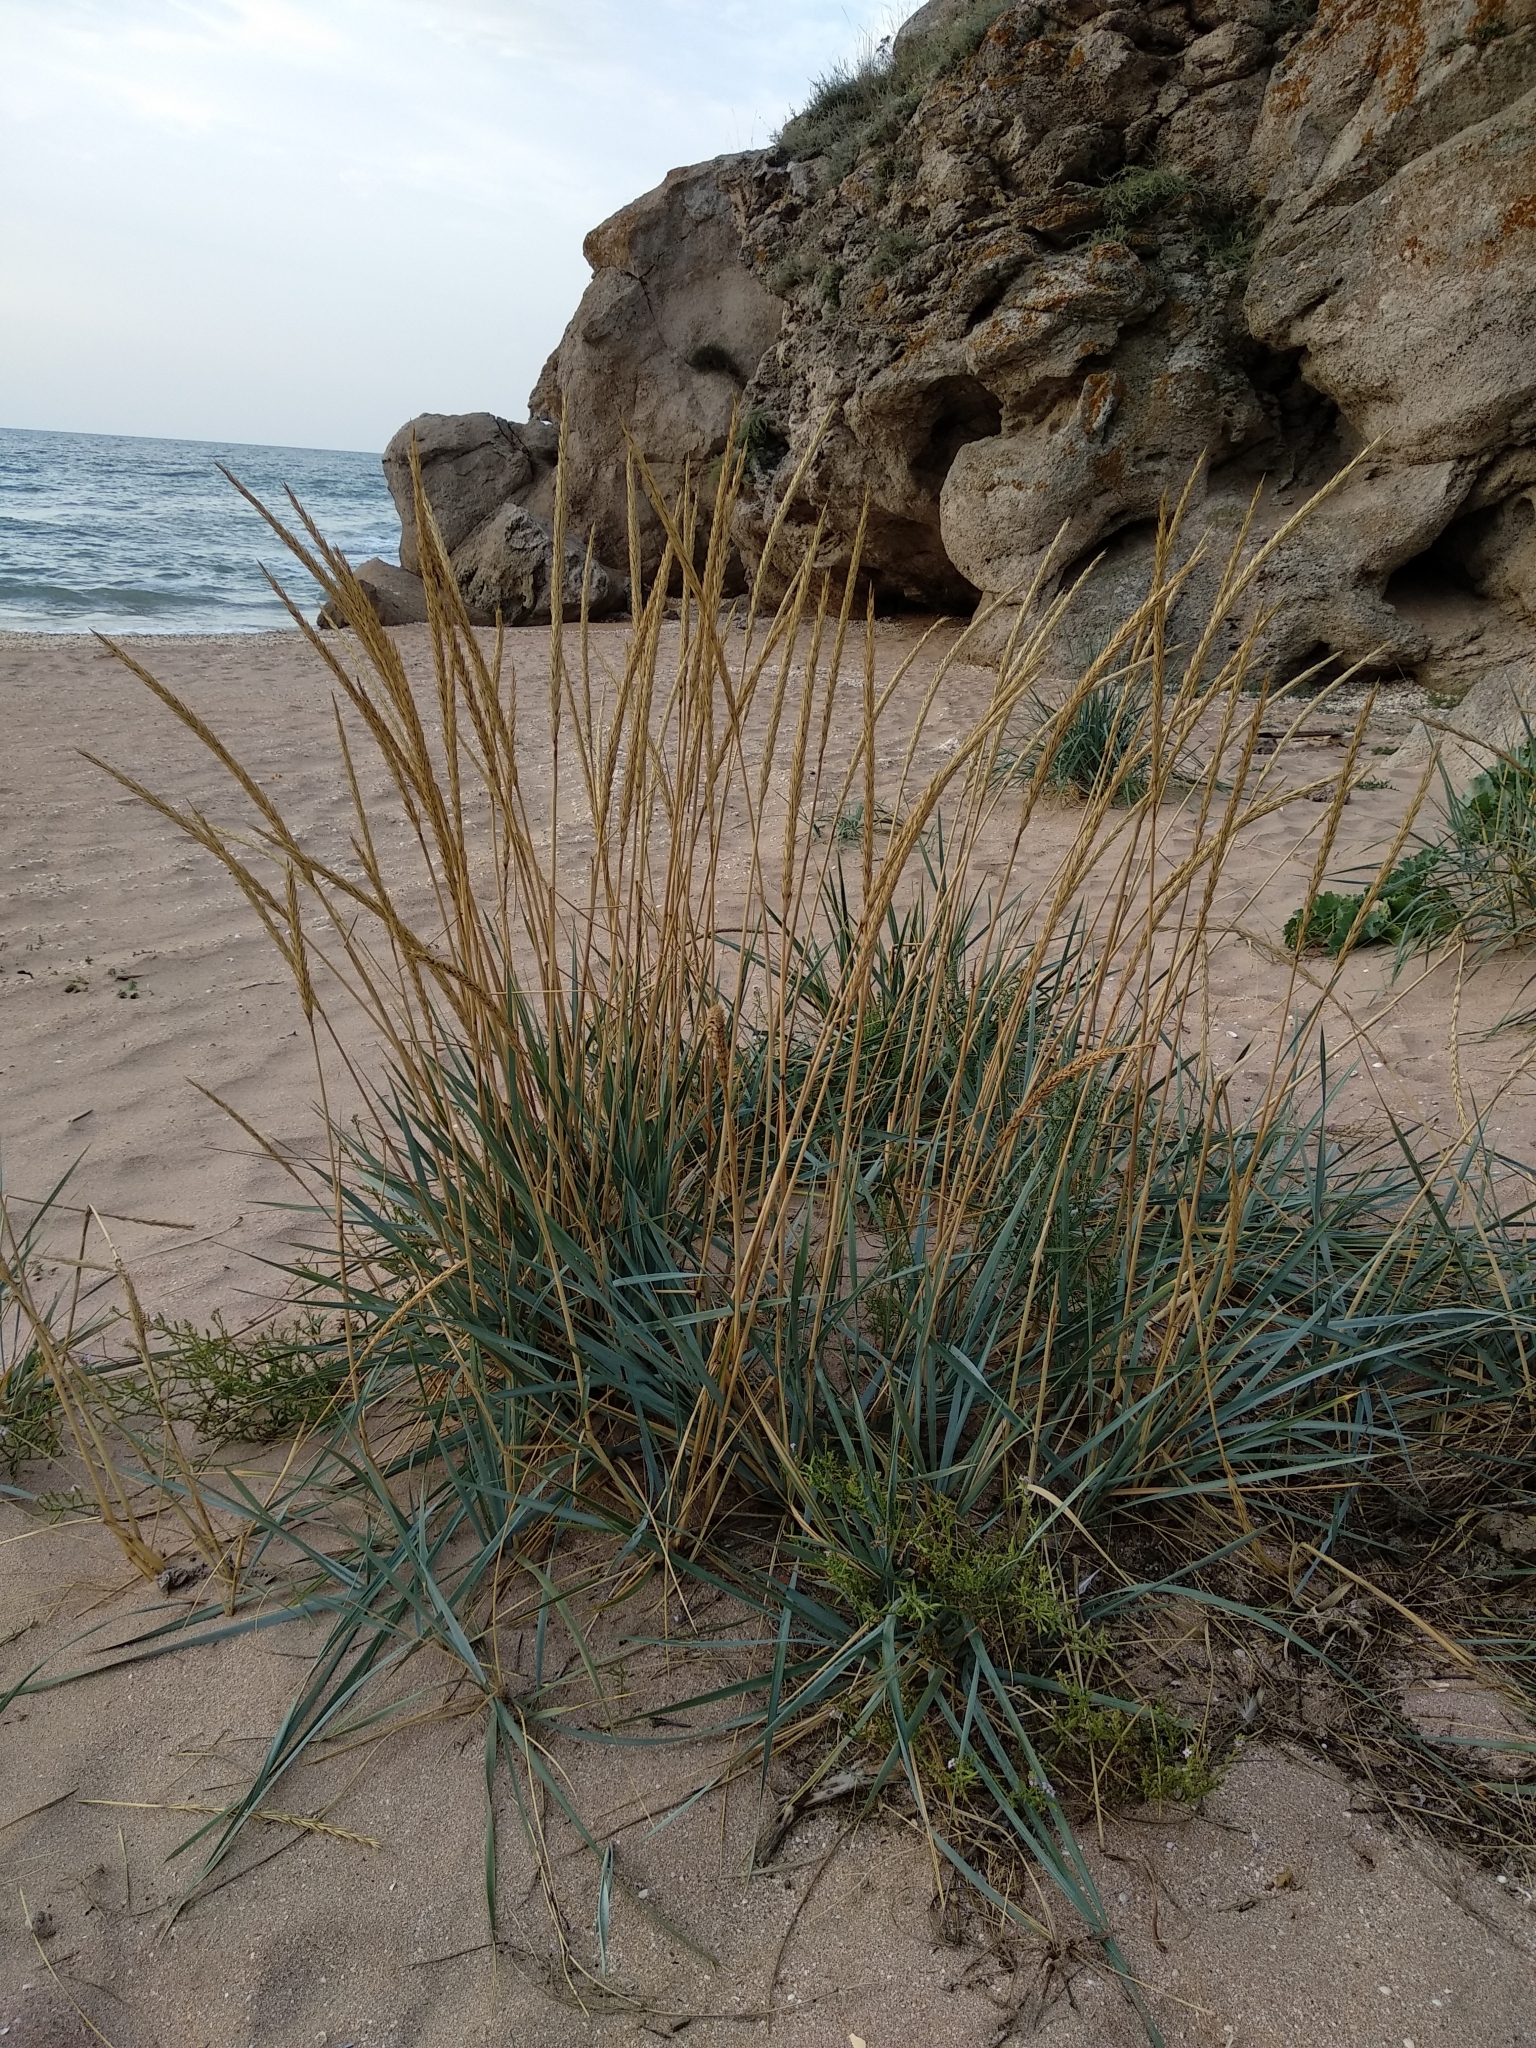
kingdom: Plantae
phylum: Tracheophyta
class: Liliopsida
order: Poales
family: Poaceae
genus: Leymus
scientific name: Leymus racemosus
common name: Mammoth wildrye
